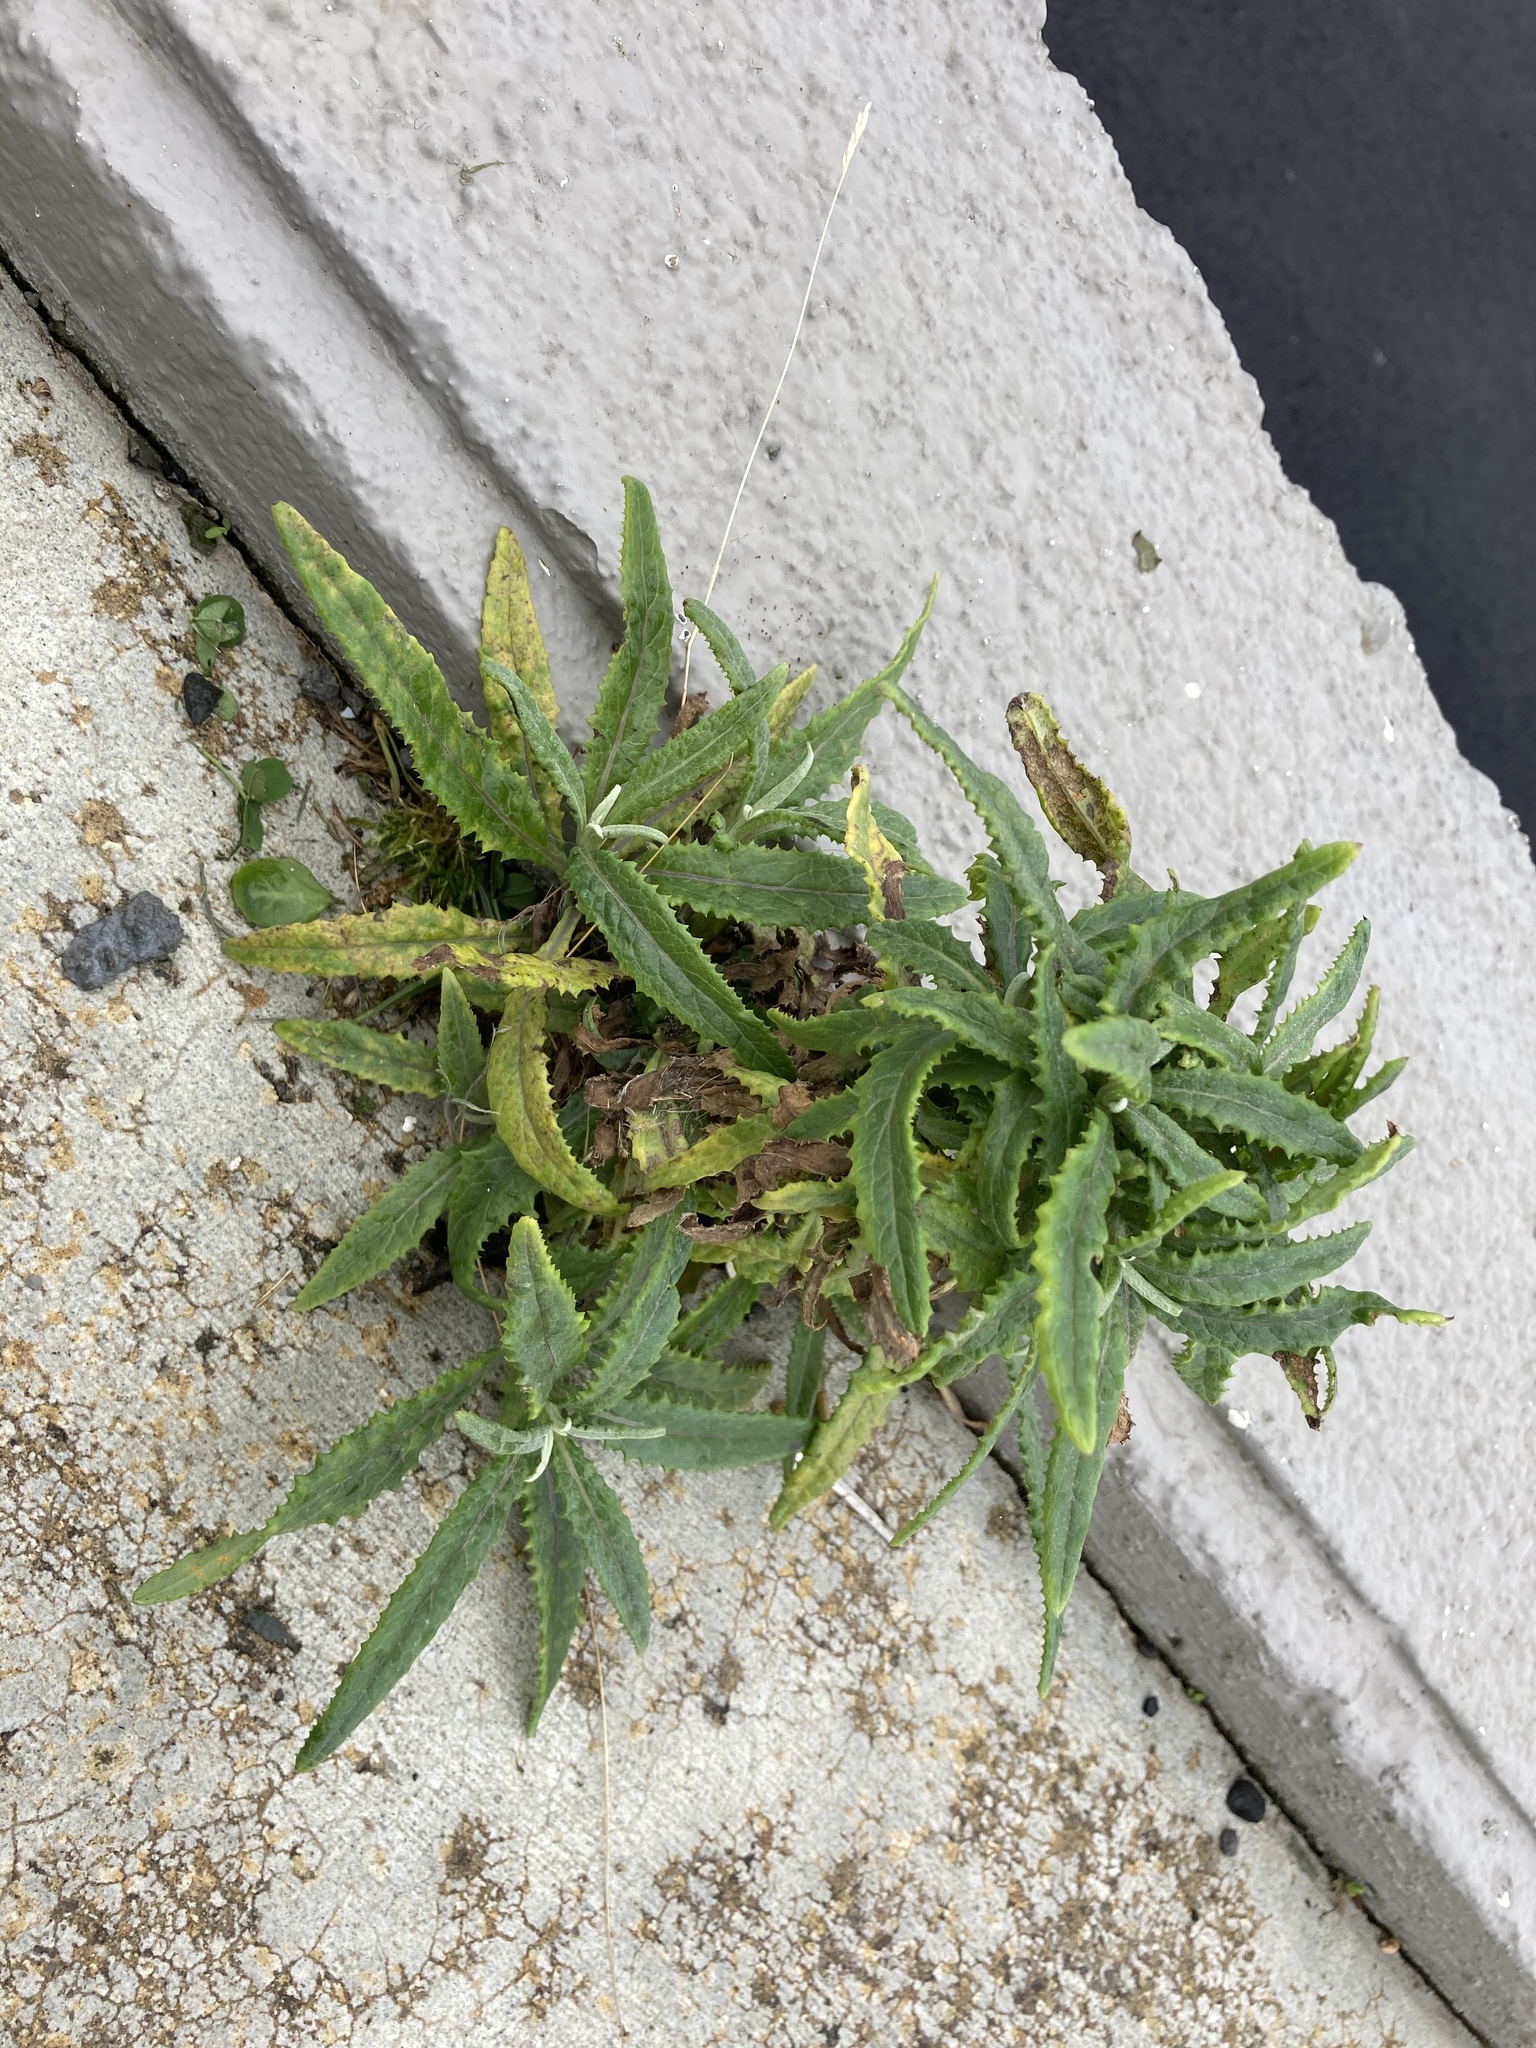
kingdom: Plantae
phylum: Tracheophyta
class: Magnoliopsida
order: Asterales
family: Asteraceae
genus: Senecio
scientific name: Senecio minimus
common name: Toothed fireweed
